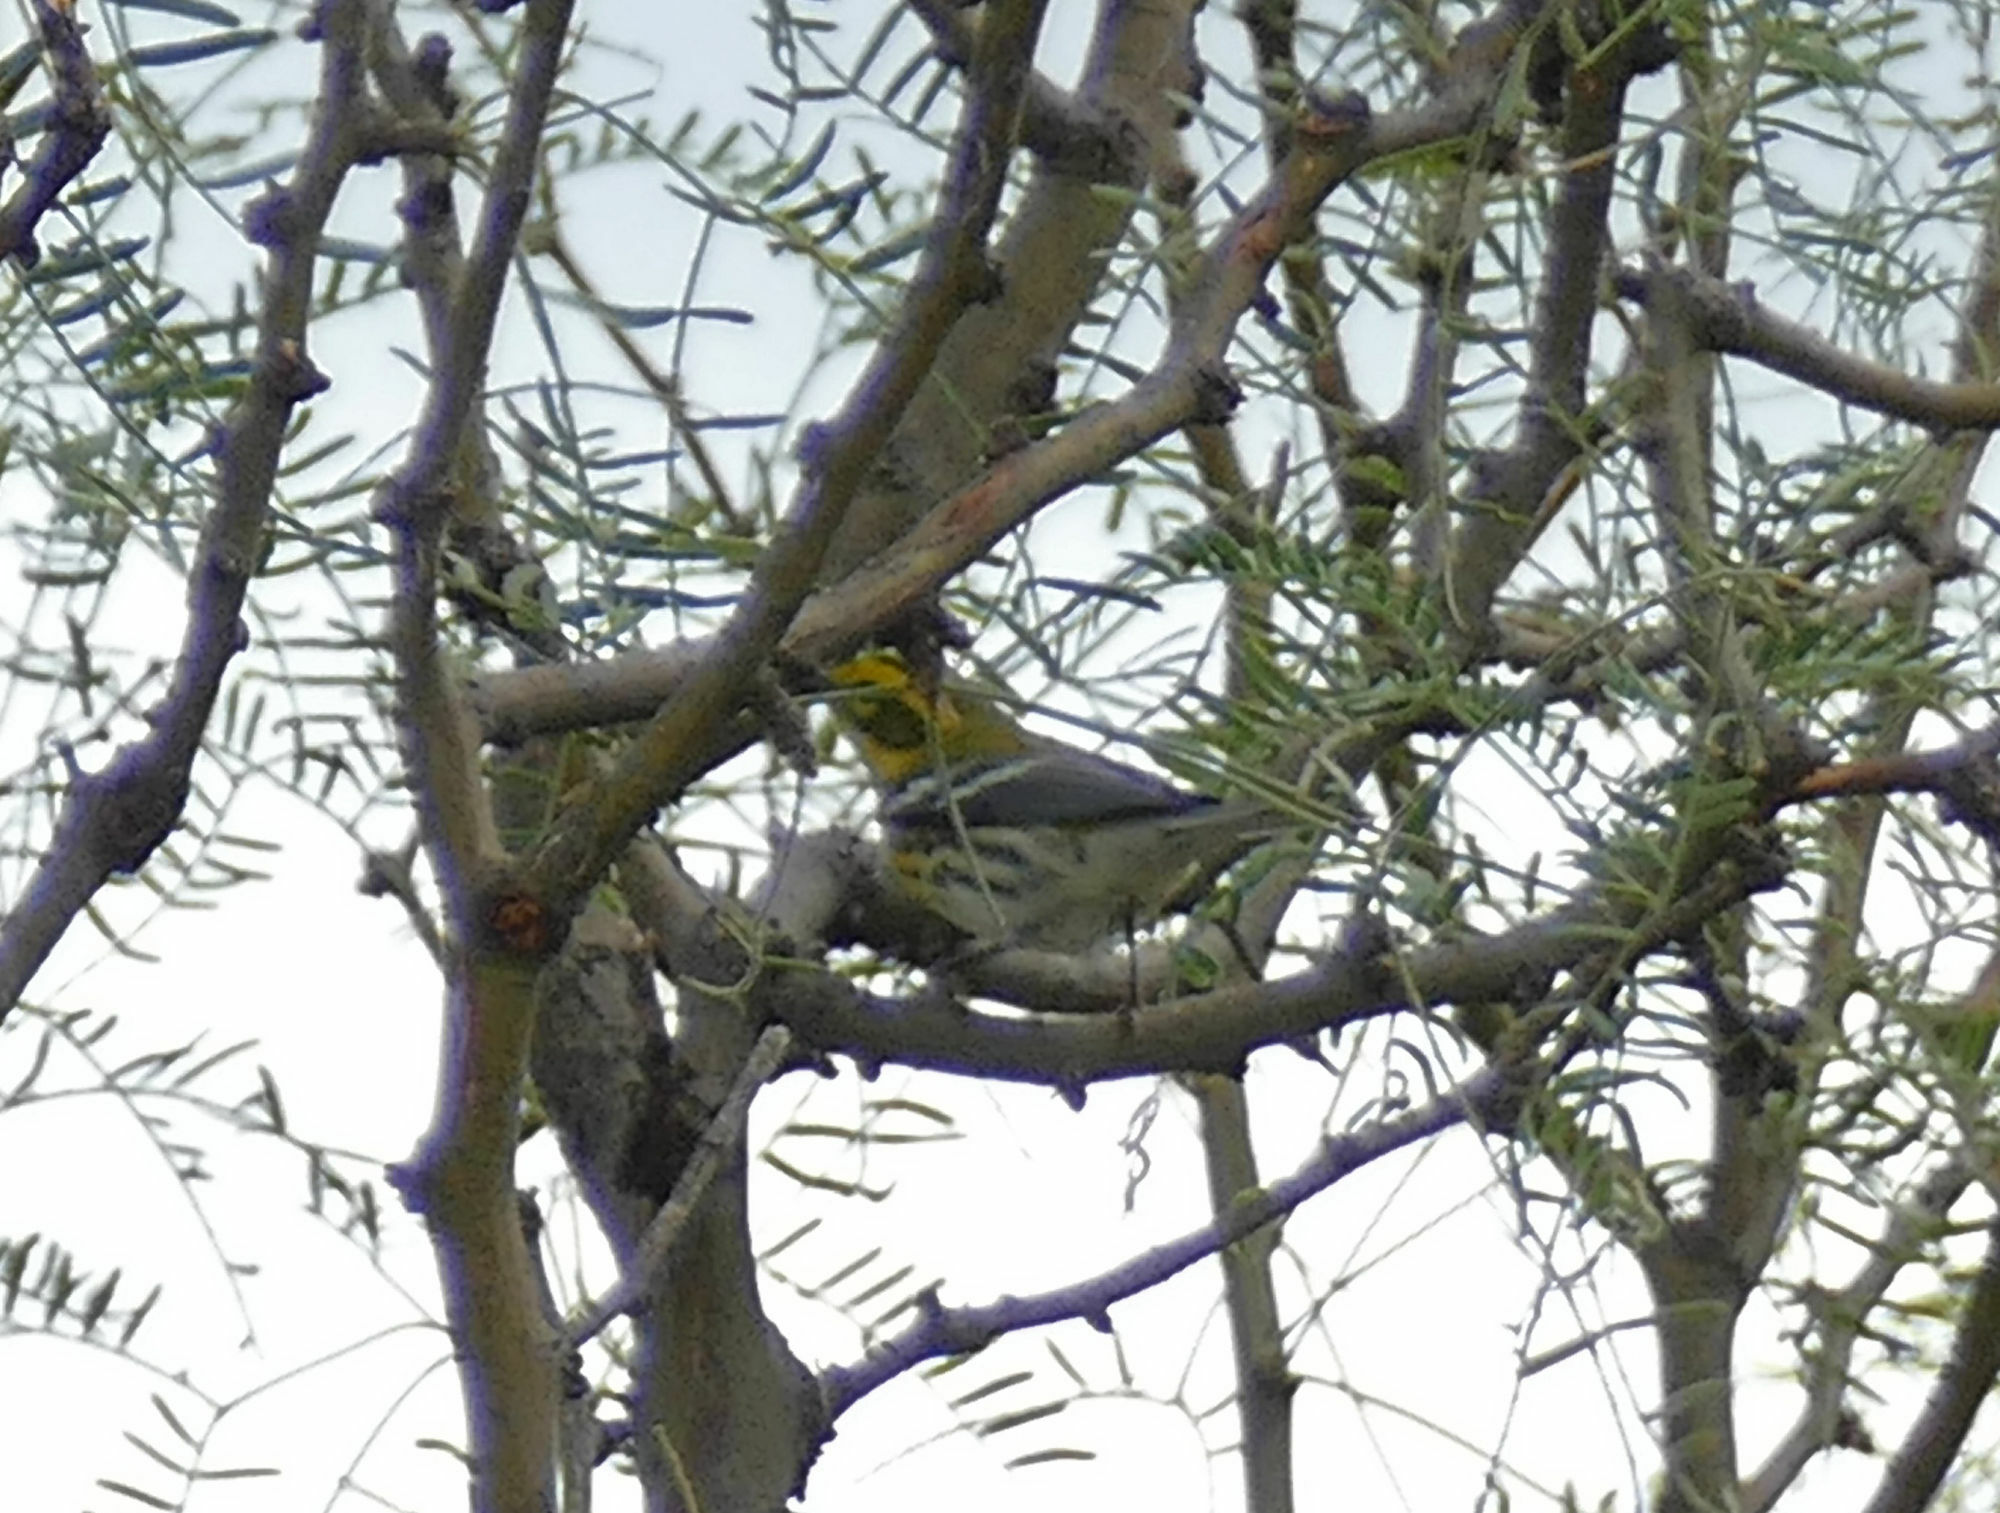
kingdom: Animalia
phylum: Chordata
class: Aves
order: Passeriformes
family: Parulidae
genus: Setophaga
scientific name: Setophaga townsendi
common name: Townsend's warbler
